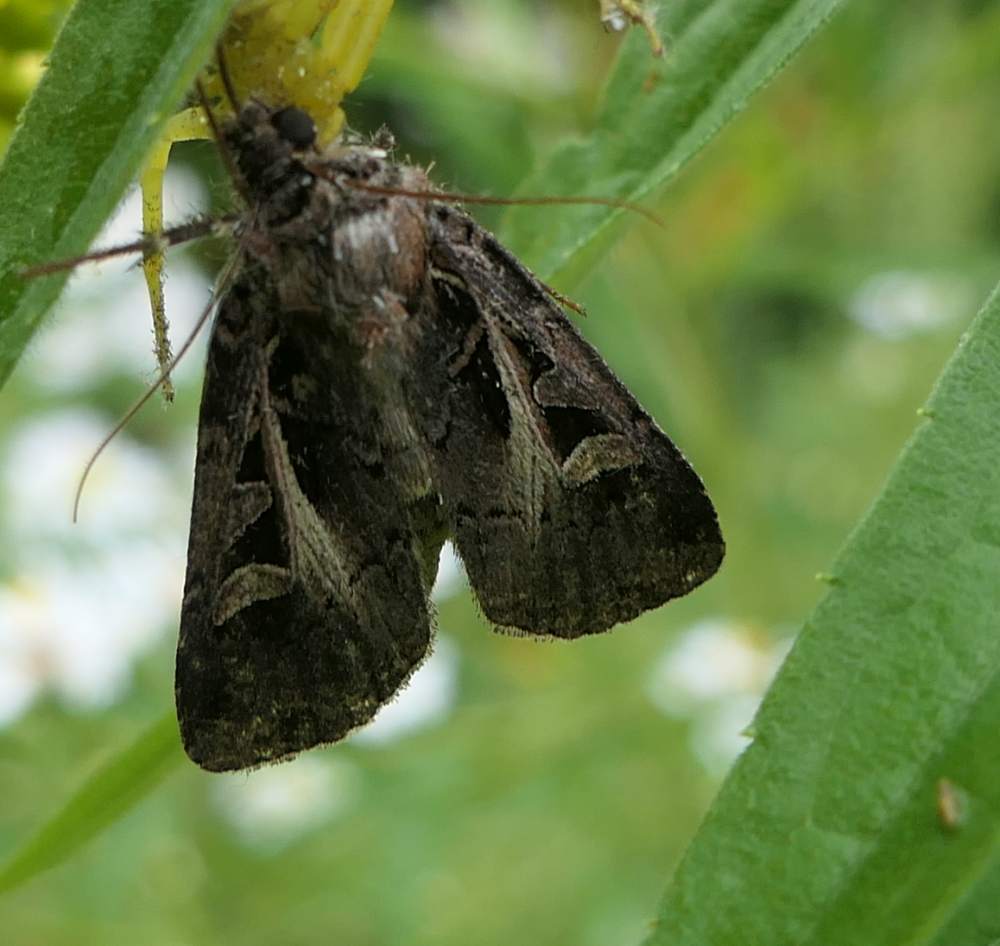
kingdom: Animalia
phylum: Arthropoda
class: Insecta
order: Lepidoptera
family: Noctuidae
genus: Feltia
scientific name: Feltia herilis
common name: Master's dart
